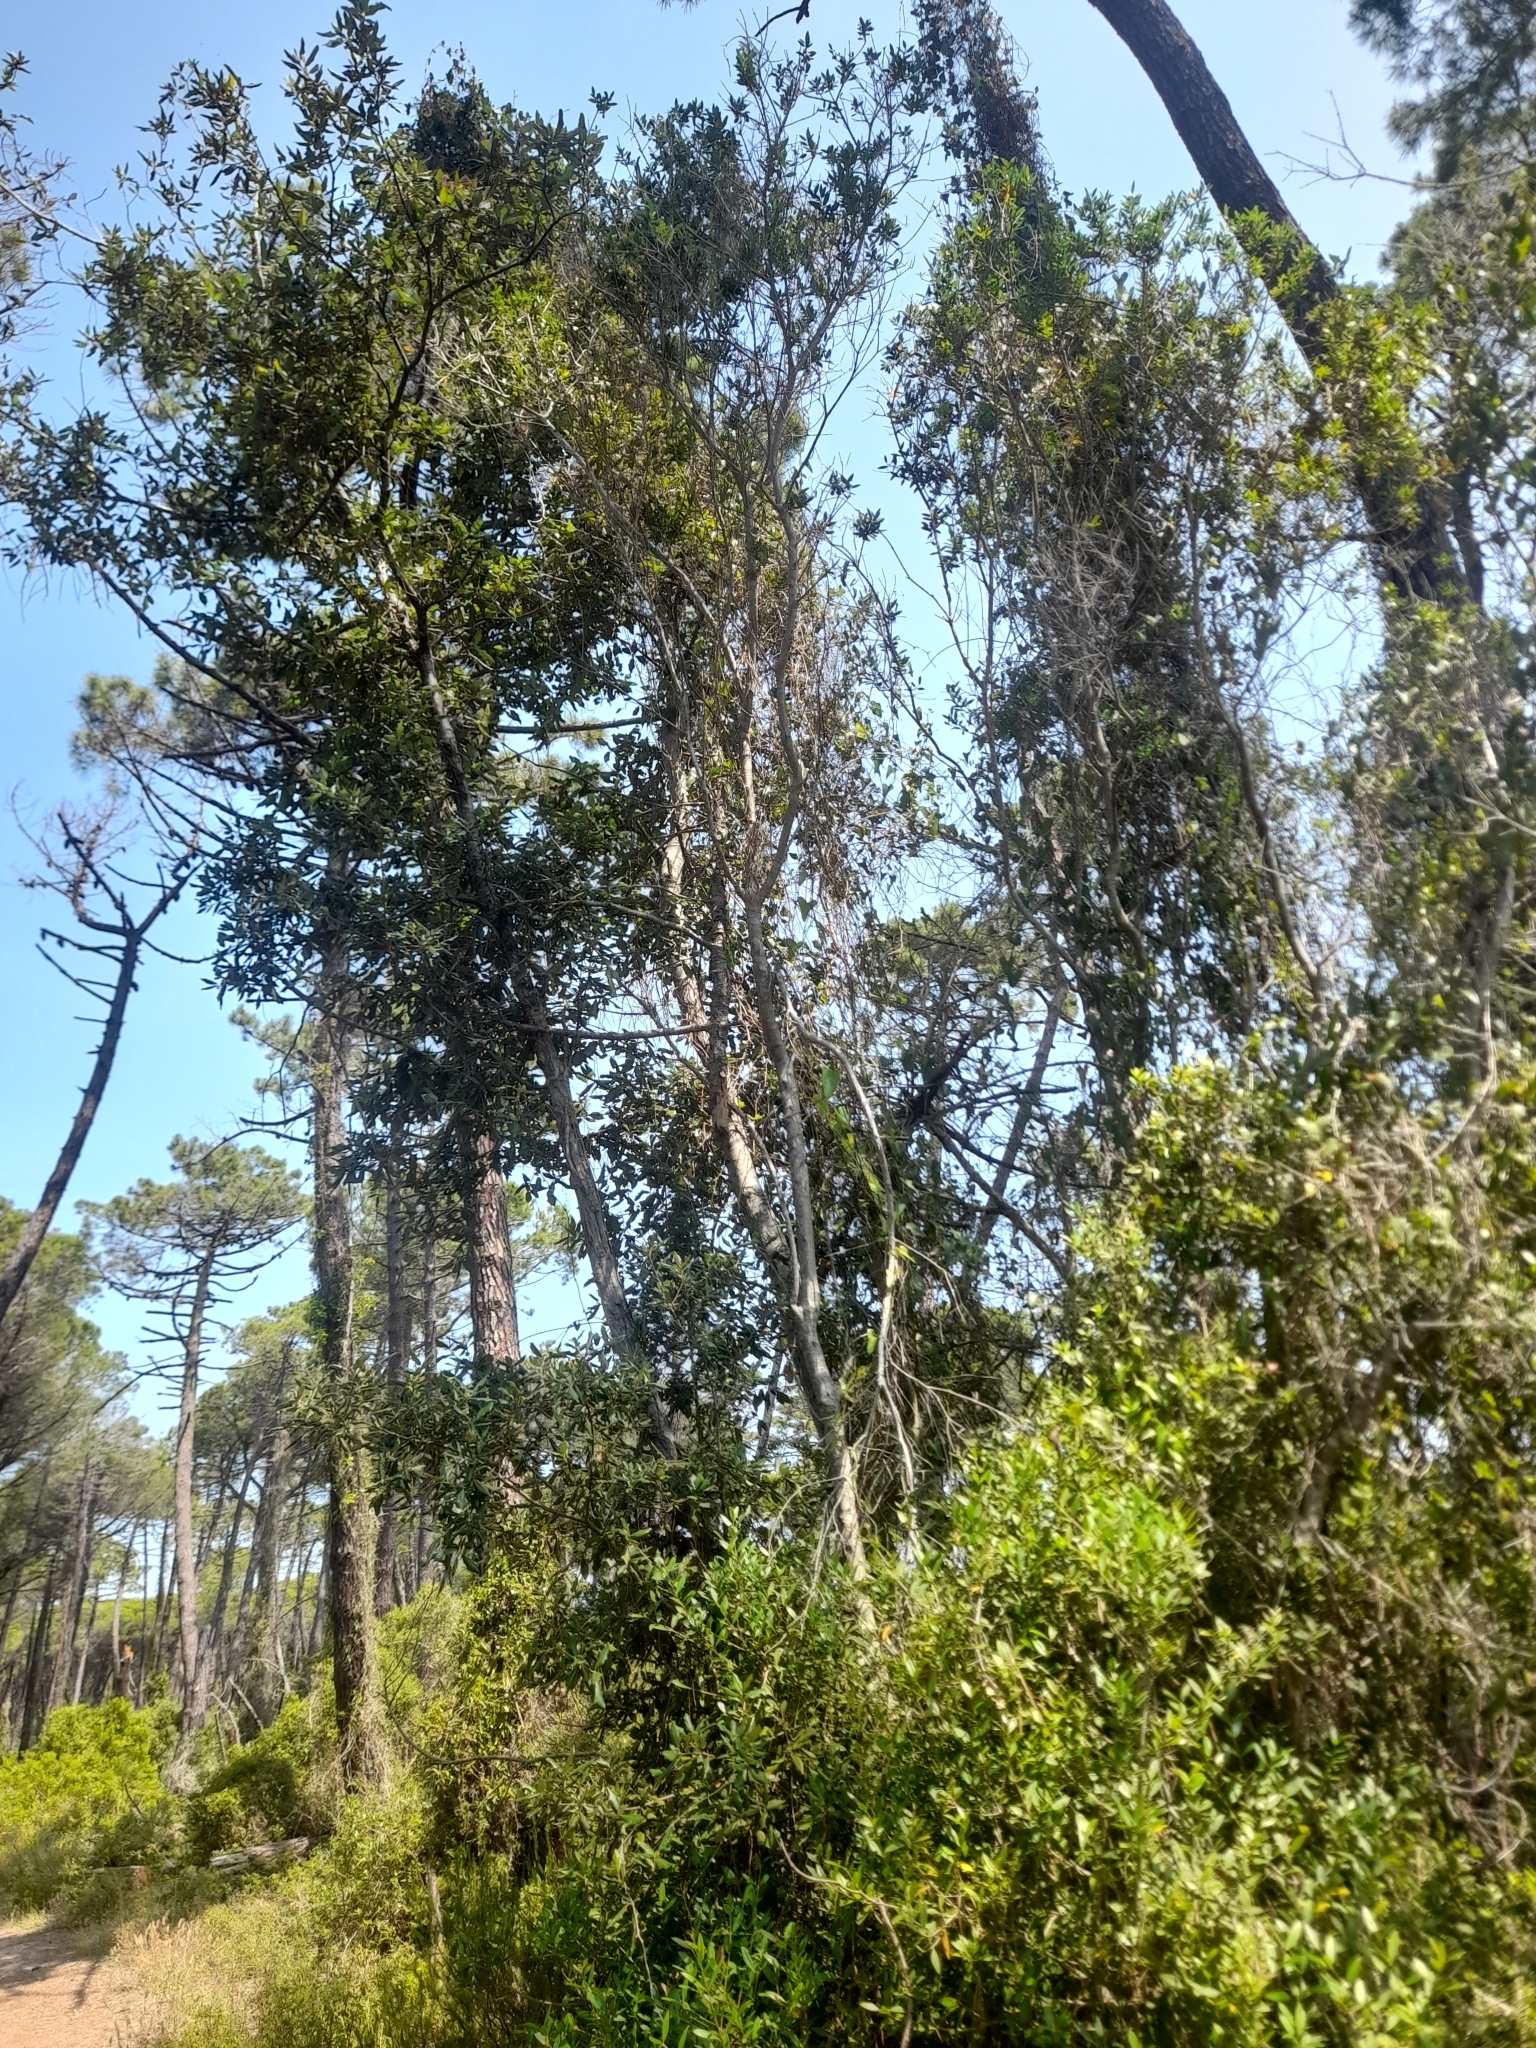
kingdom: Plantae
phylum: Tracheophyta
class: Magnoliopsida
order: Fagales
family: Fagaceae
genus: Quercus
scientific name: Quercus ilex
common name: Evergreen oak
